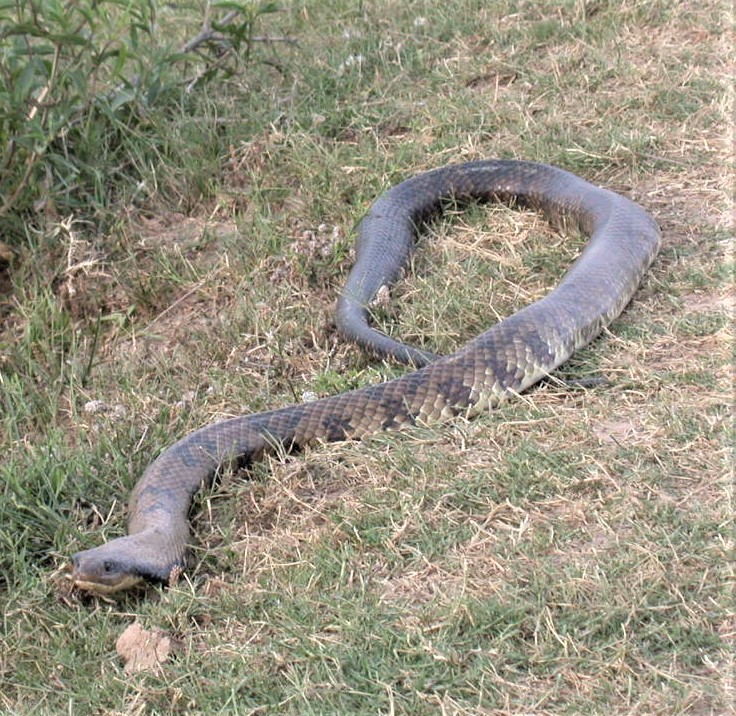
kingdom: Animalia
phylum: Chordata
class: Squamata
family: Colubridae
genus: Hydrodynastes
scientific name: Hydrodynastes gigas
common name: False water cobra
